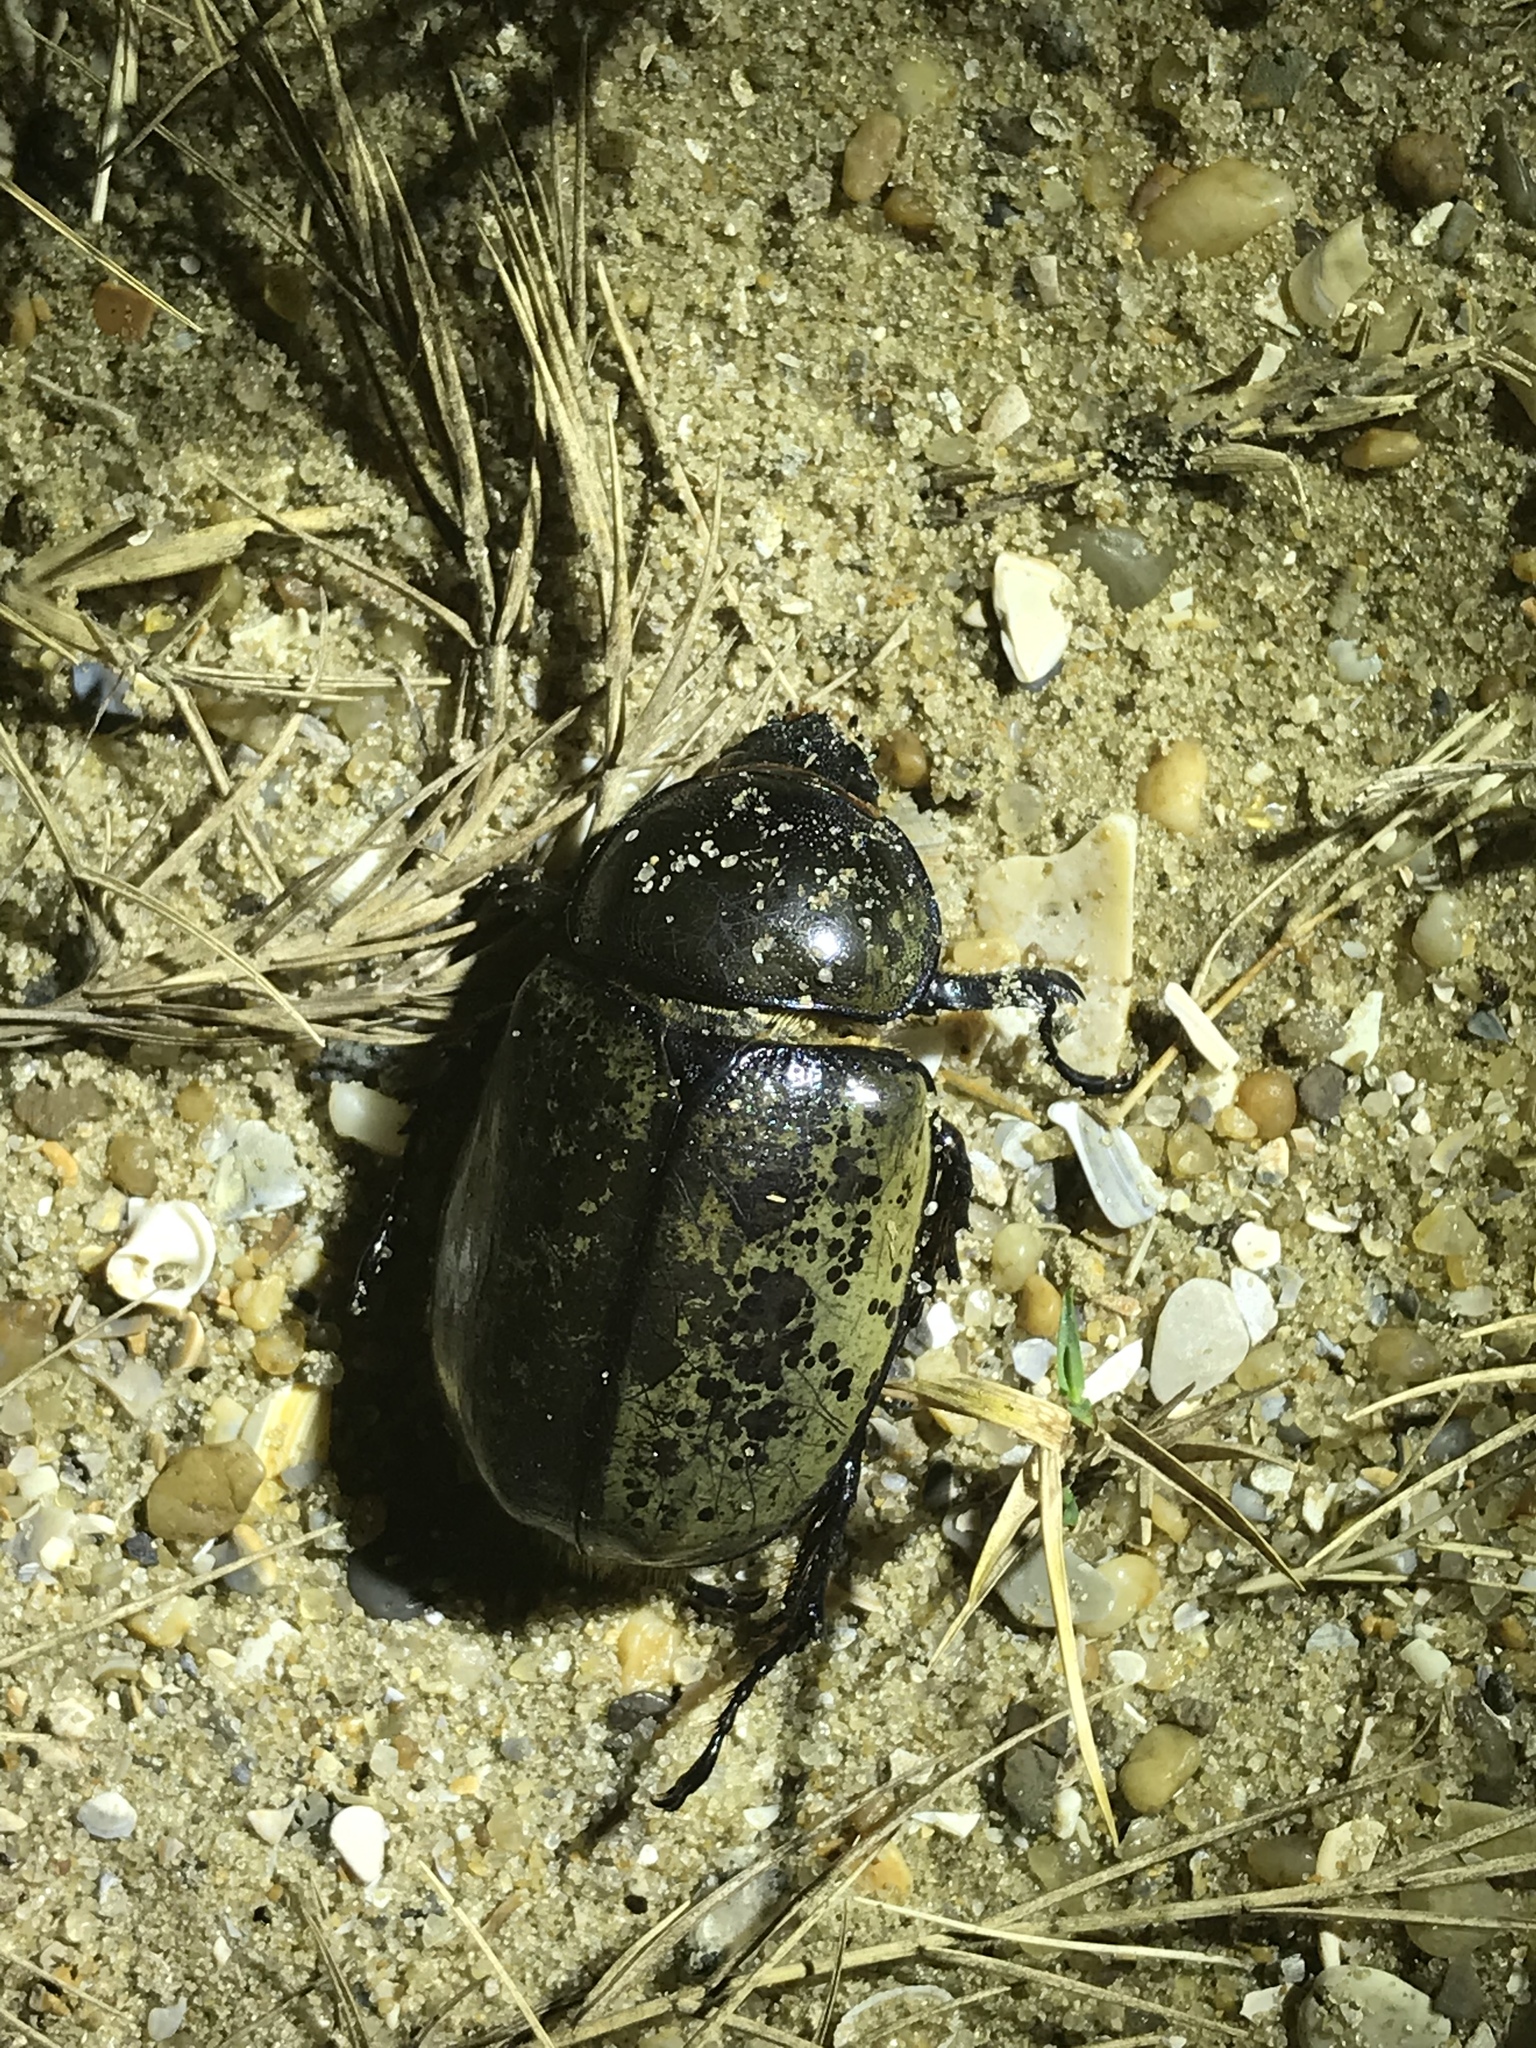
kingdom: Animalia
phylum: Arthropoda
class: Insecta
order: Coleoptera
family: Scarabaeidae
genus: Dynastes
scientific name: Dynastes tityus
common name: Eastern hercules beetle
